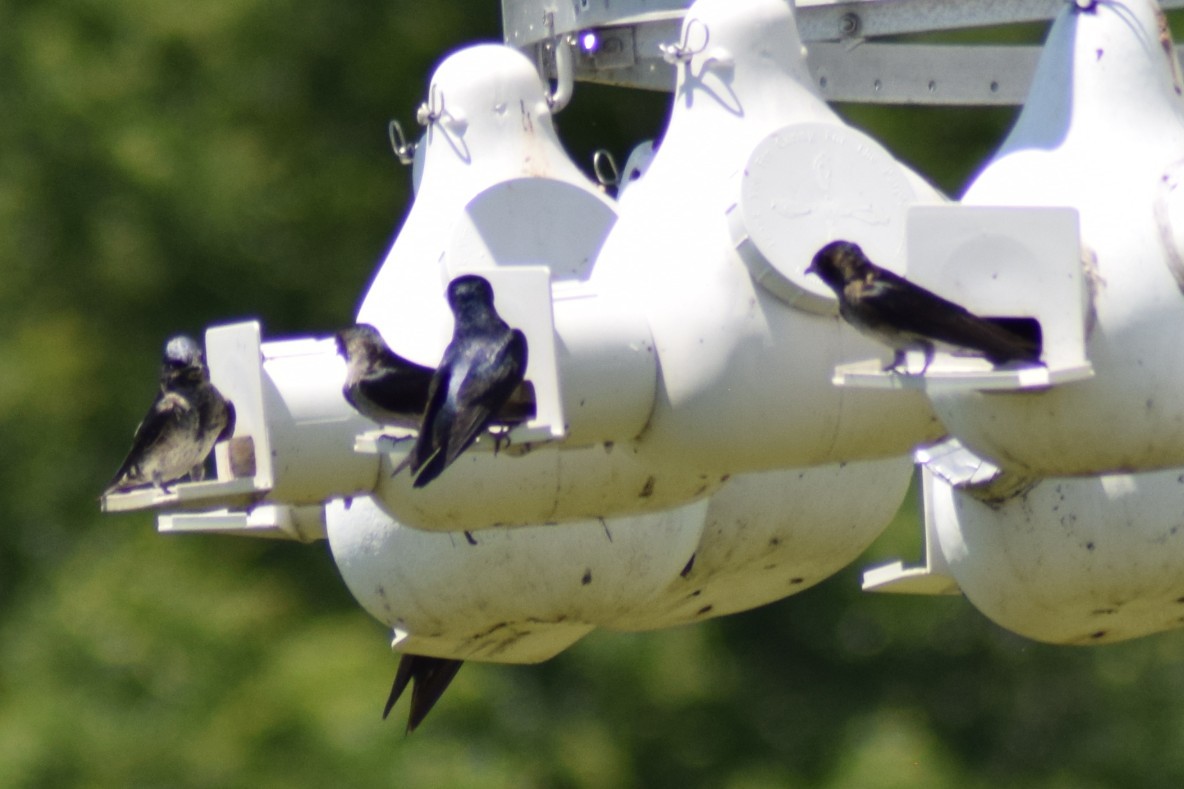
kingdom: Animalia
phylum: Chordata
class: Aves
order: Passeriformes
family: Hirundinidae
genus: Progne
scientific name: Progne subis
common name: Purple martin
